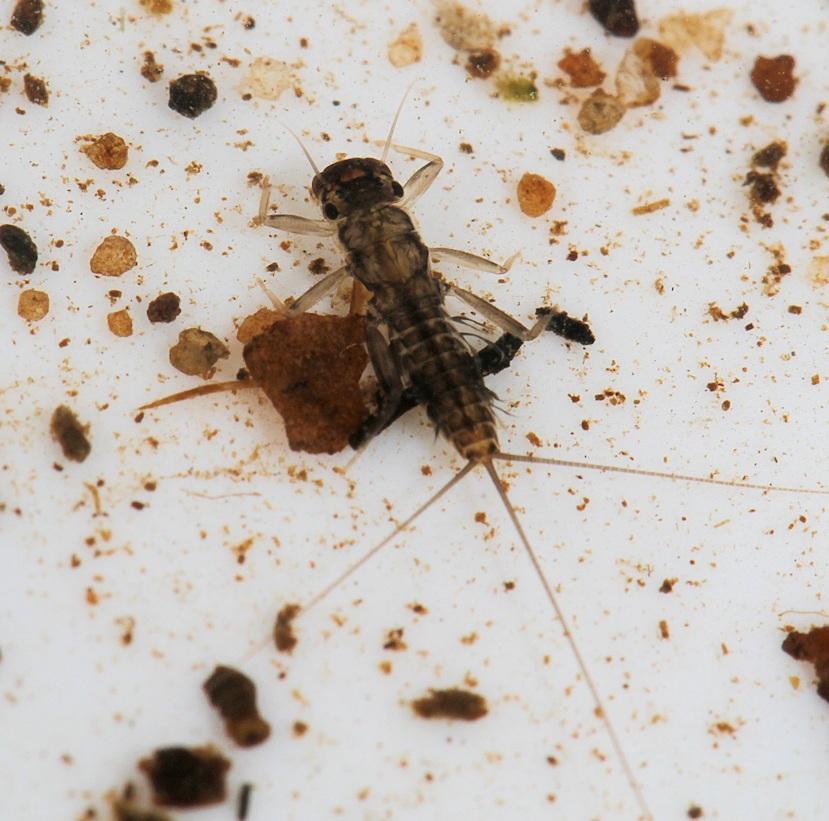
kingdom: Animalia
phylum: Arthropoda
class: Insecta
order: Ephemeroptera
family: Leptophlebiidae
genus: Euthraulus
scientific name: Euthraulus elegans
